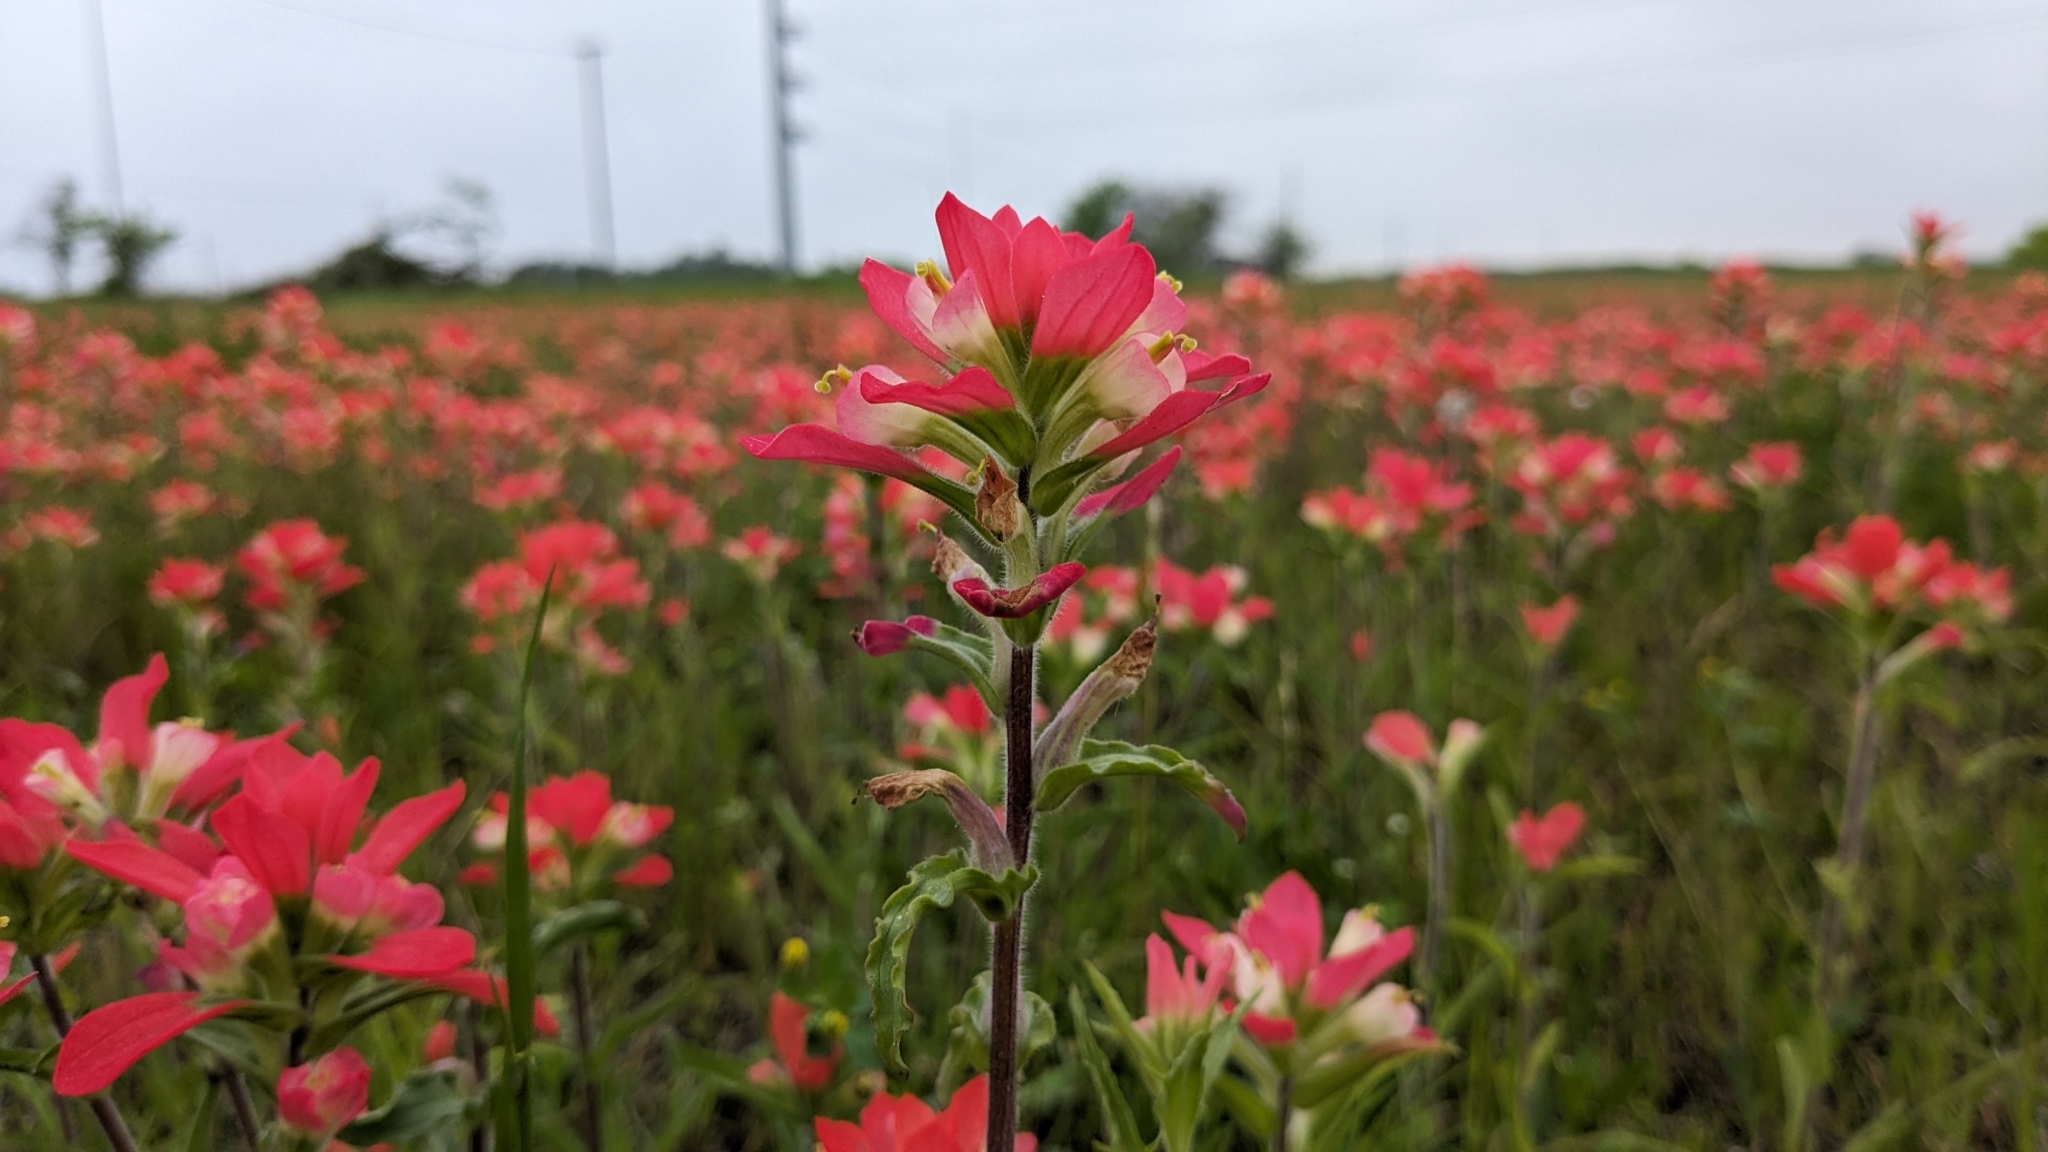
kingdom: Plantae
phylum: Tracheophyta
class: Magnoliopsida
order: Lamiales
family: Orobanchaceae
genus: Castilleja
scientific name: Castilleja indivisa
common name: Texas paintbrush
